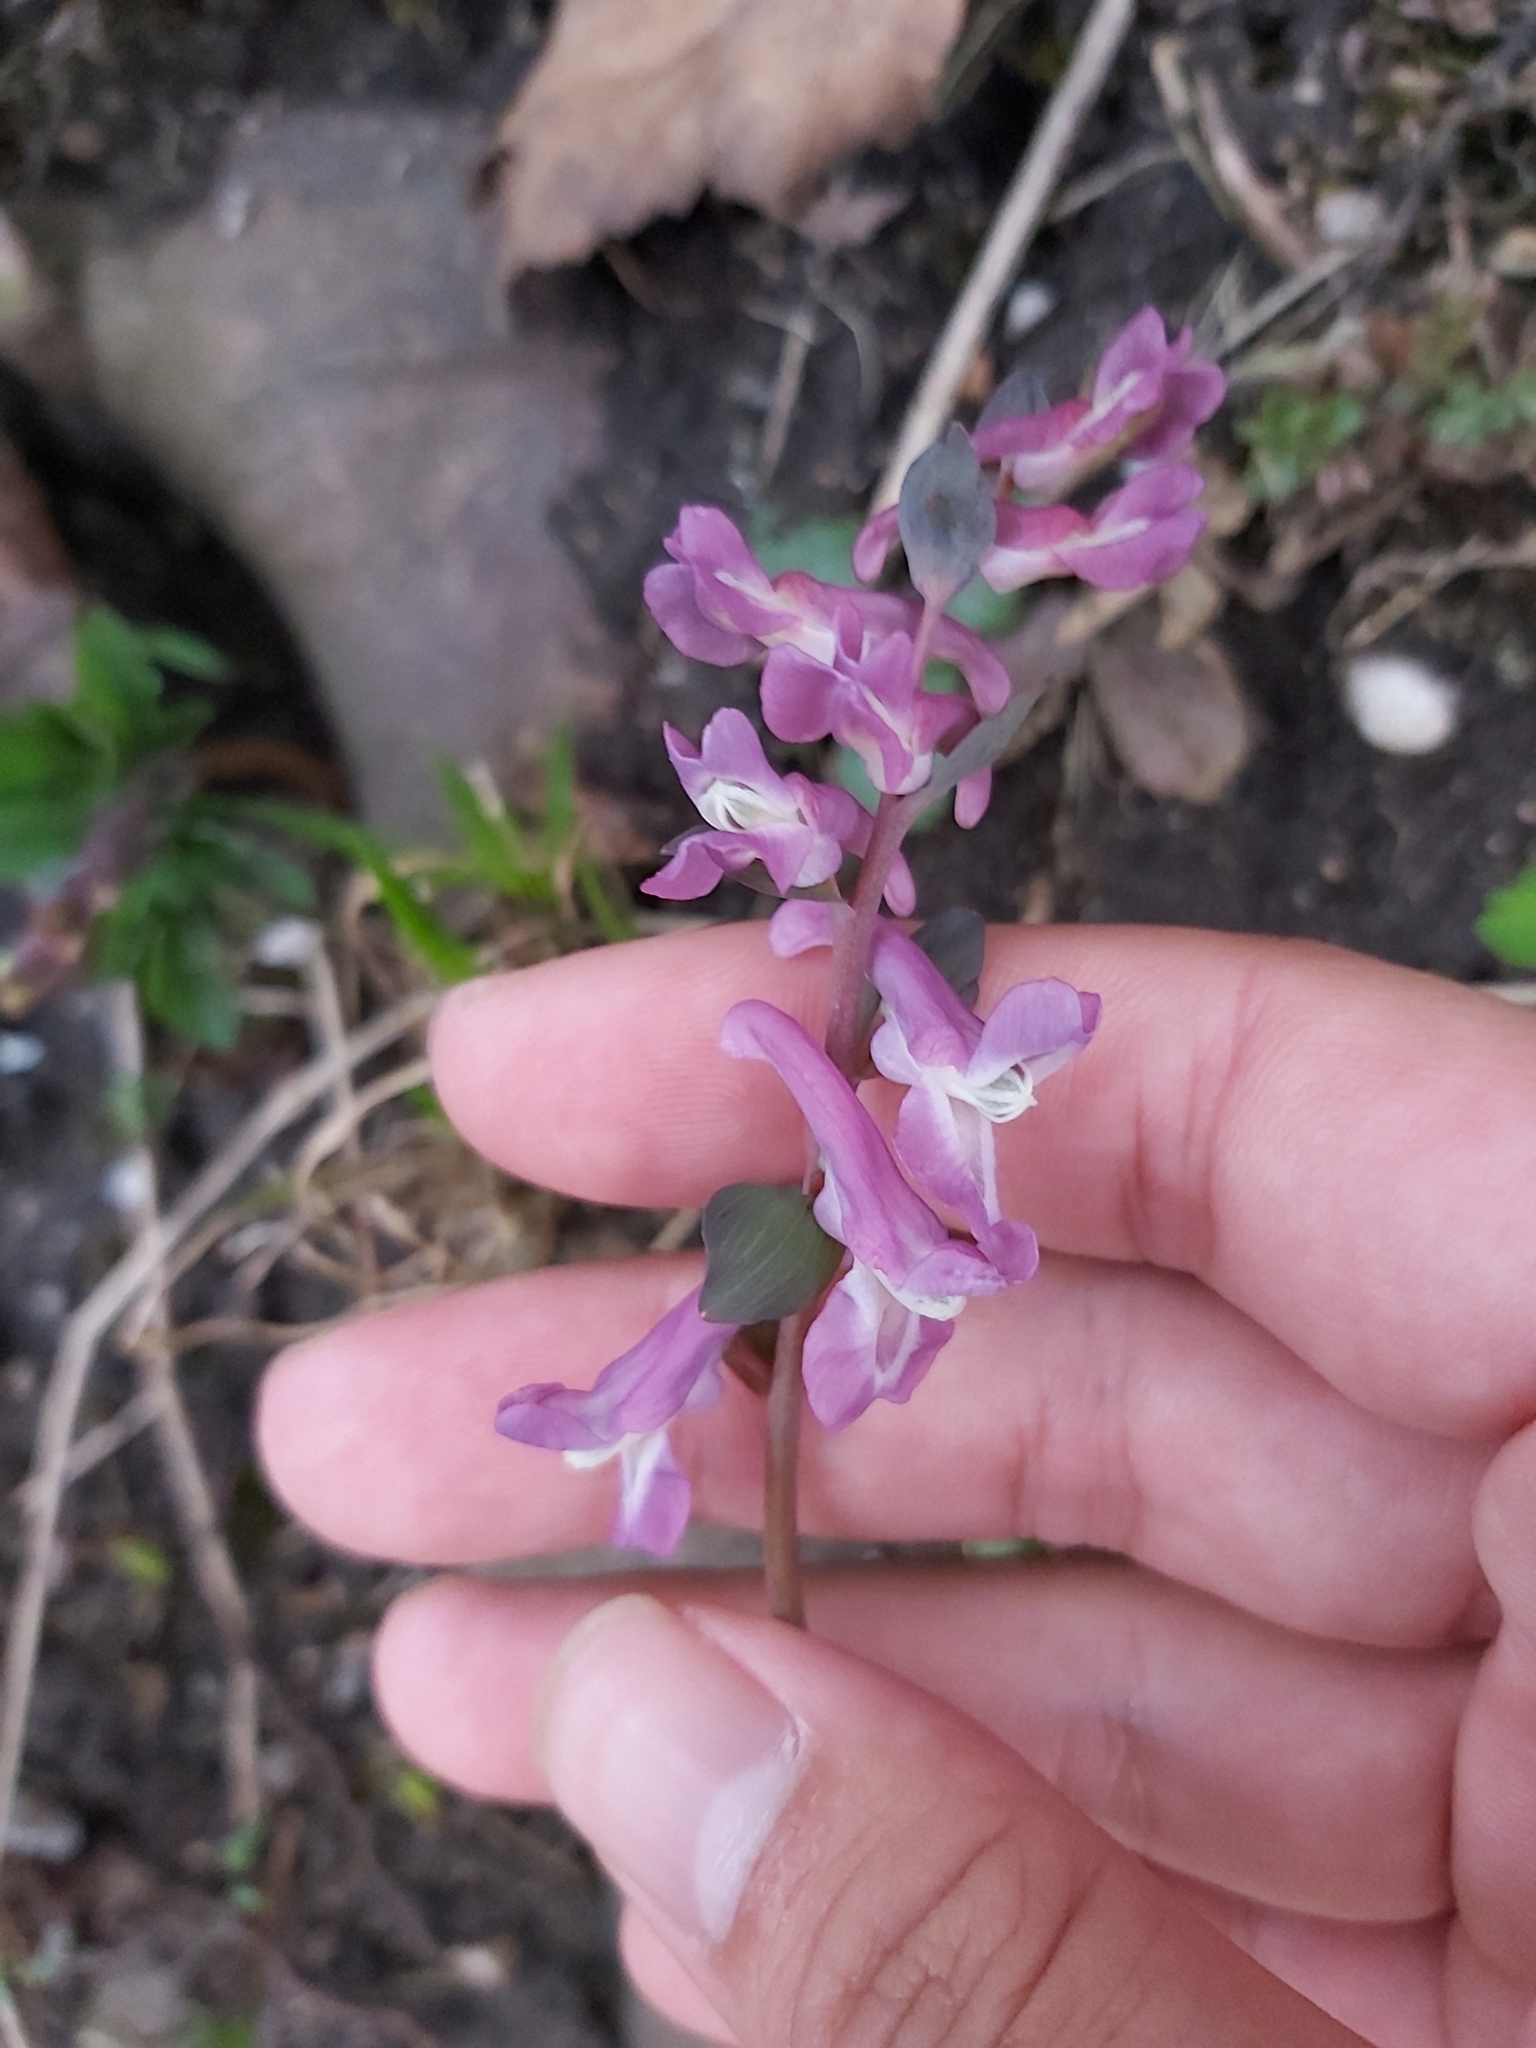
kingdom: Plantae
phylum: Tracheophyta
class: Magnoliopsida
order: Ranunculales
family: Papaveraceae
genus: Corydalis
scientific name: Corydalis cava
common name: Hollowroot
